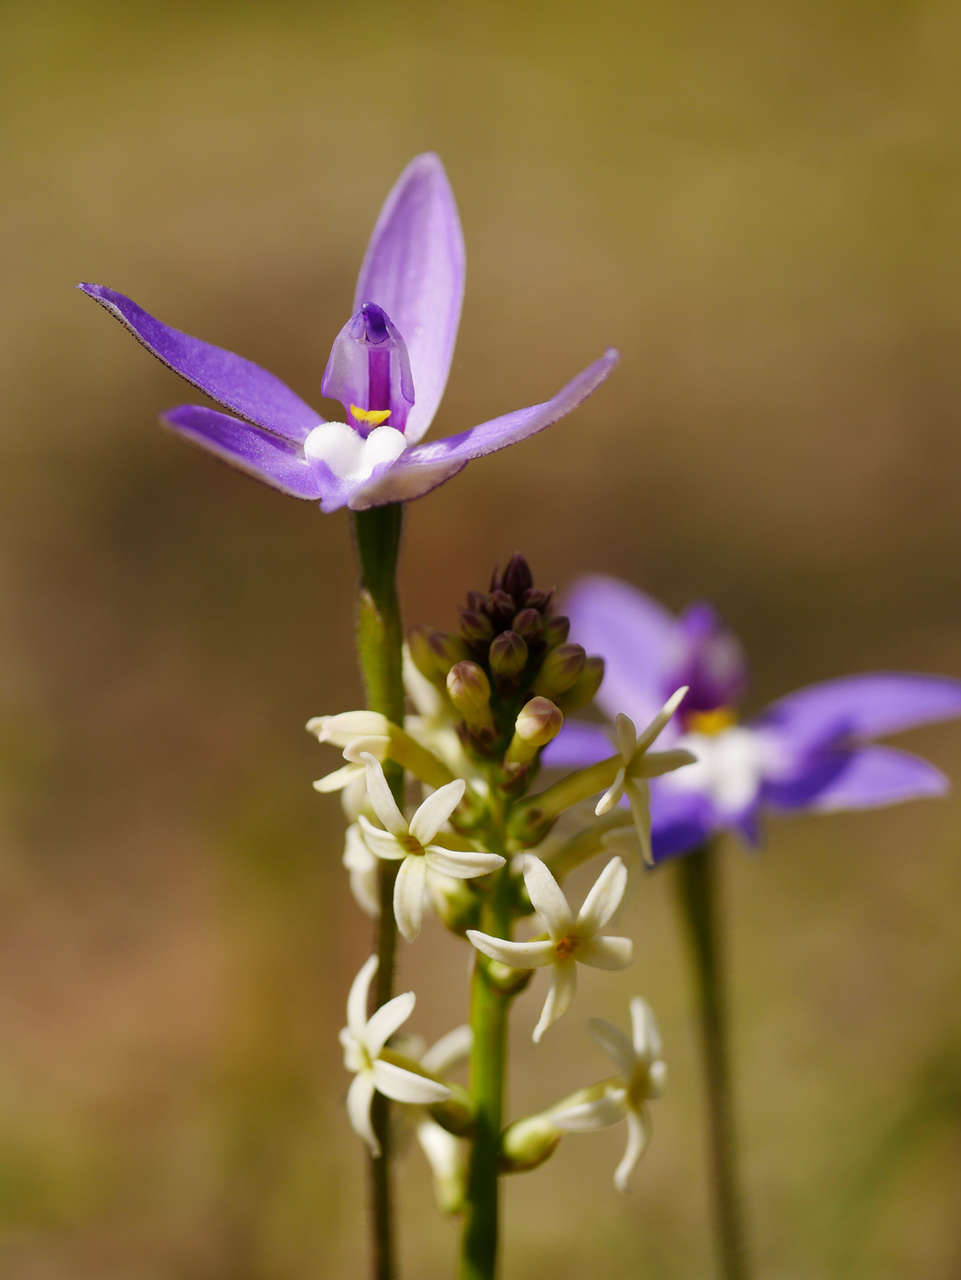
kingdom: Plantae
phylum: Tracheophyta
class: Magnoliopsida
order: Celastrales
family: Celastraceae
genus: Stackhousia
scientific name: Stackhousia monogyna
